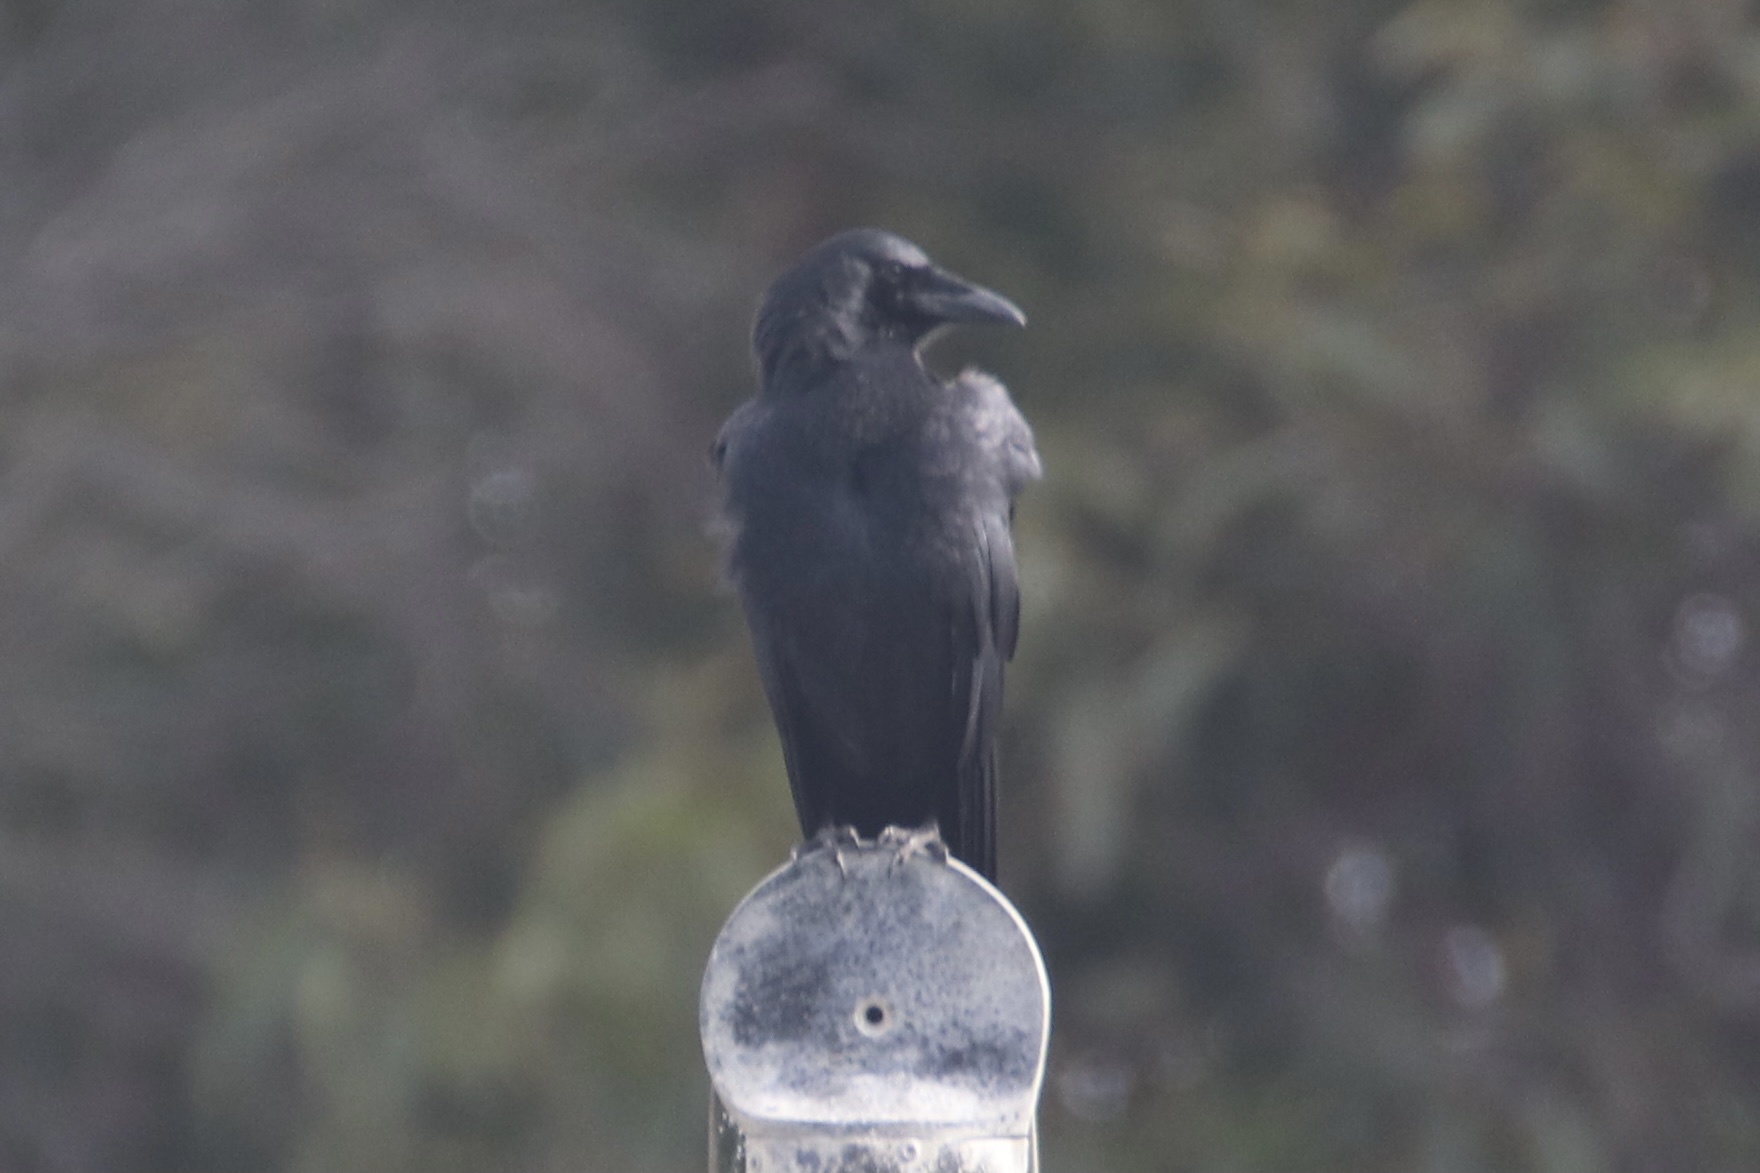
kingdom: Animalia
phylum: Chordata
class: Aves
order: Passeriformes
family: Corvidae
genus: Corvus
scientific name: Corvus corax
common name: Common raven
